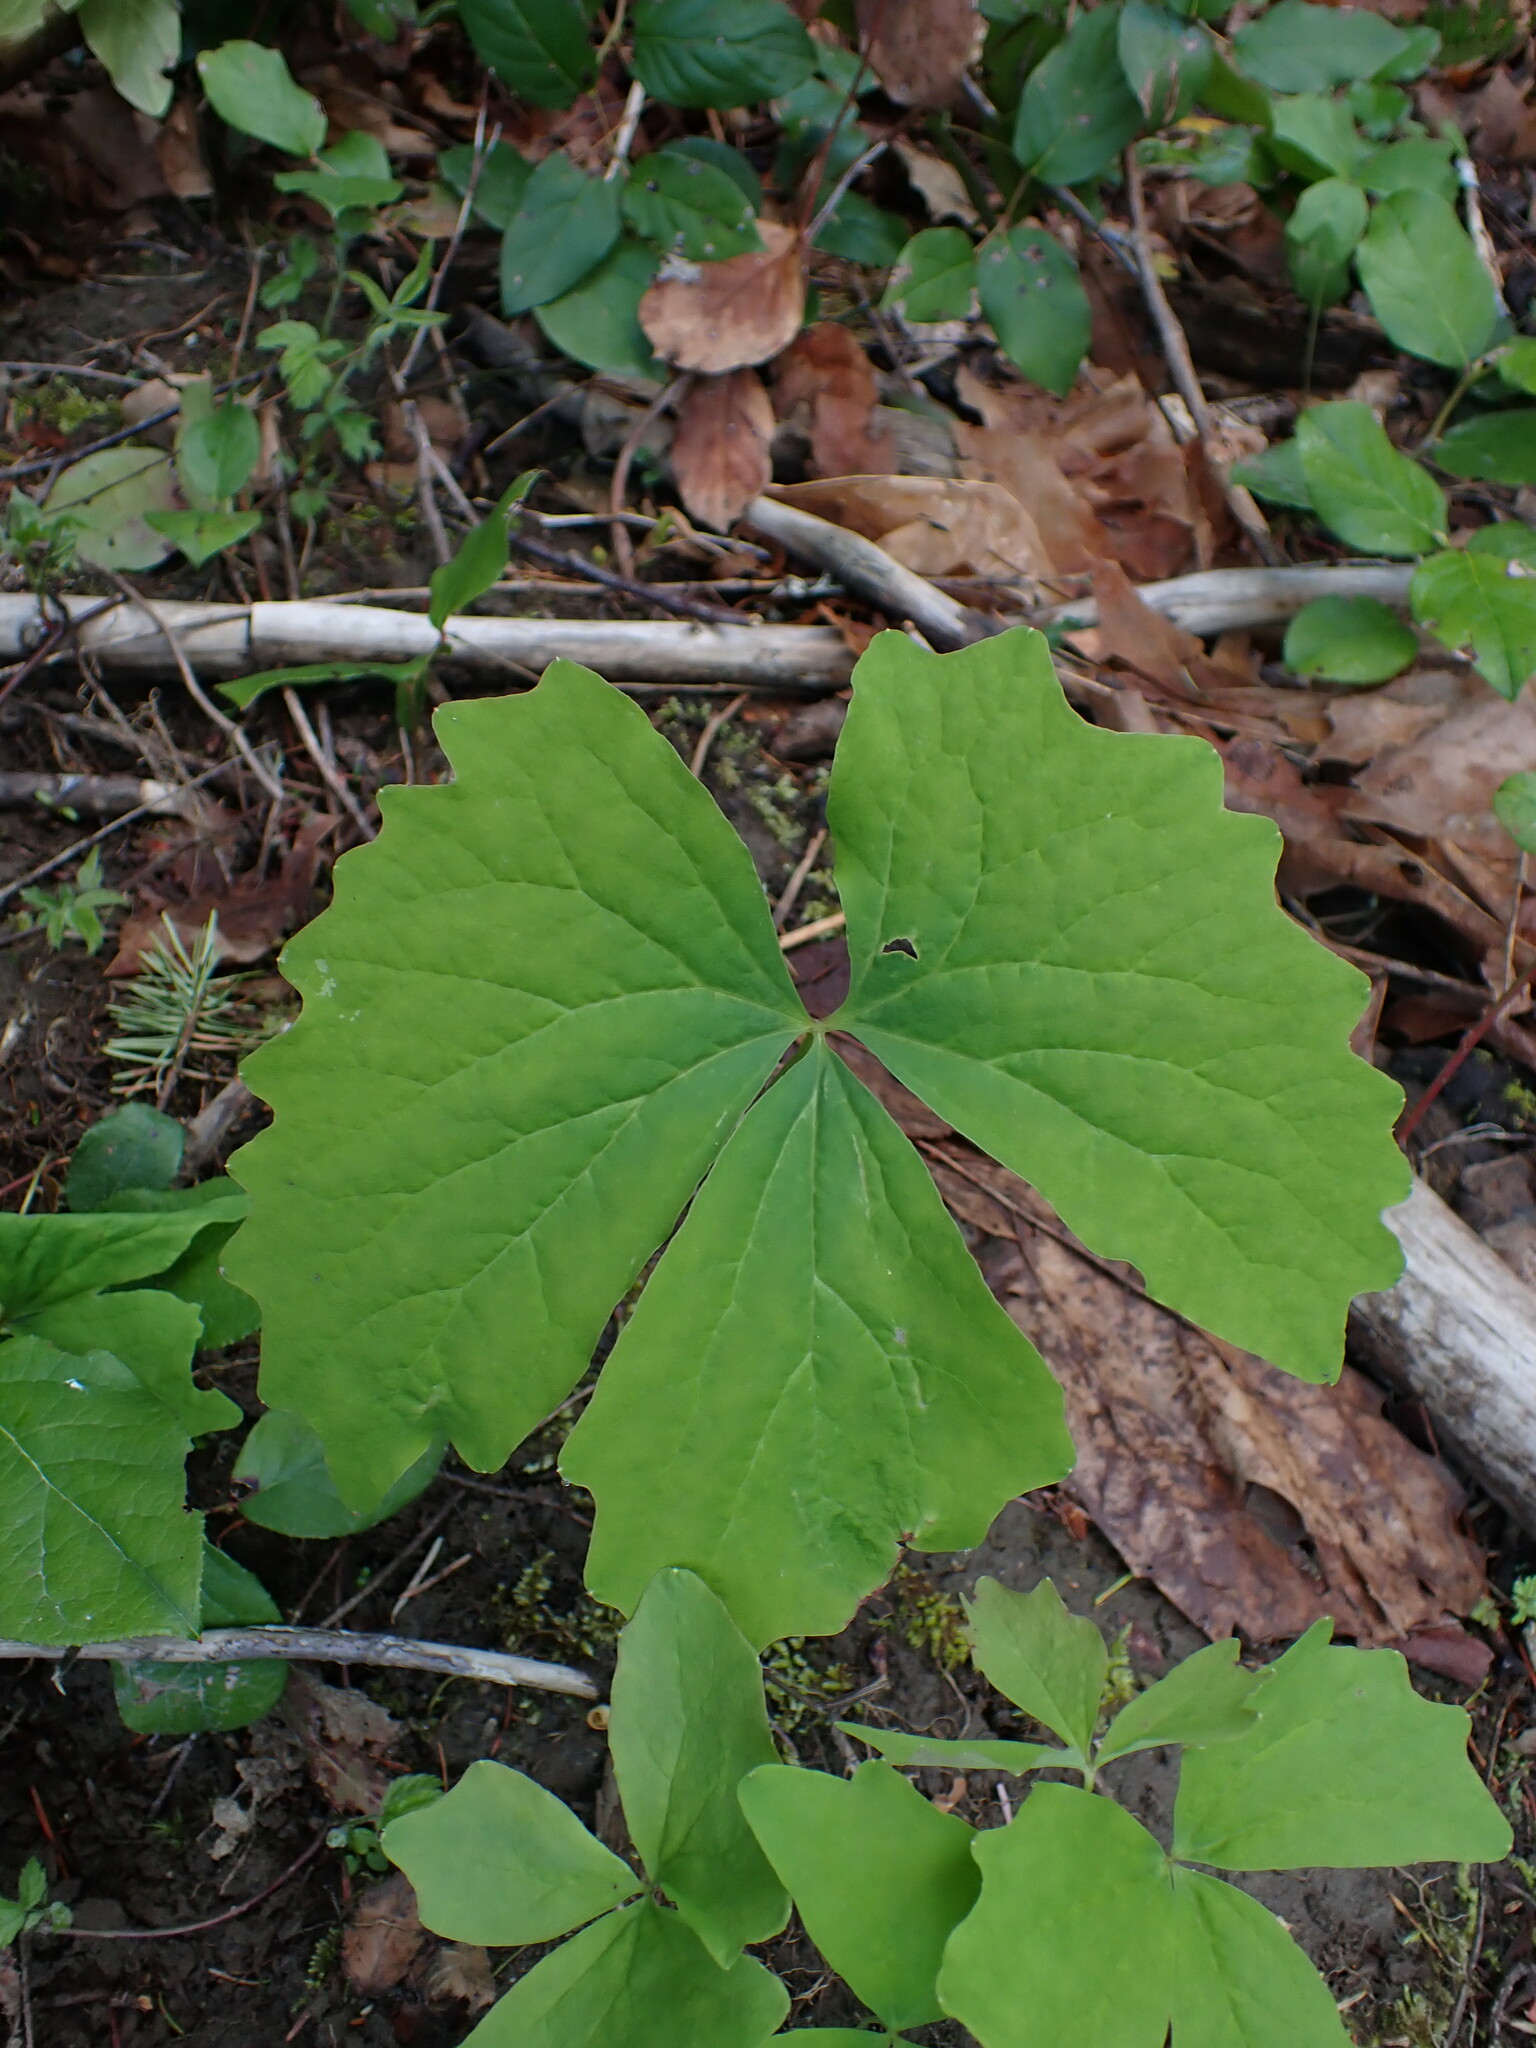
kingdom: Plantae
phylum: Tracheophyta
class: Magnoliopsida
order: Ranunculales
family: Berberidaceae
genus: Achlys
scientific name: Achlys triphylla
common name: Vanilla-leaf
